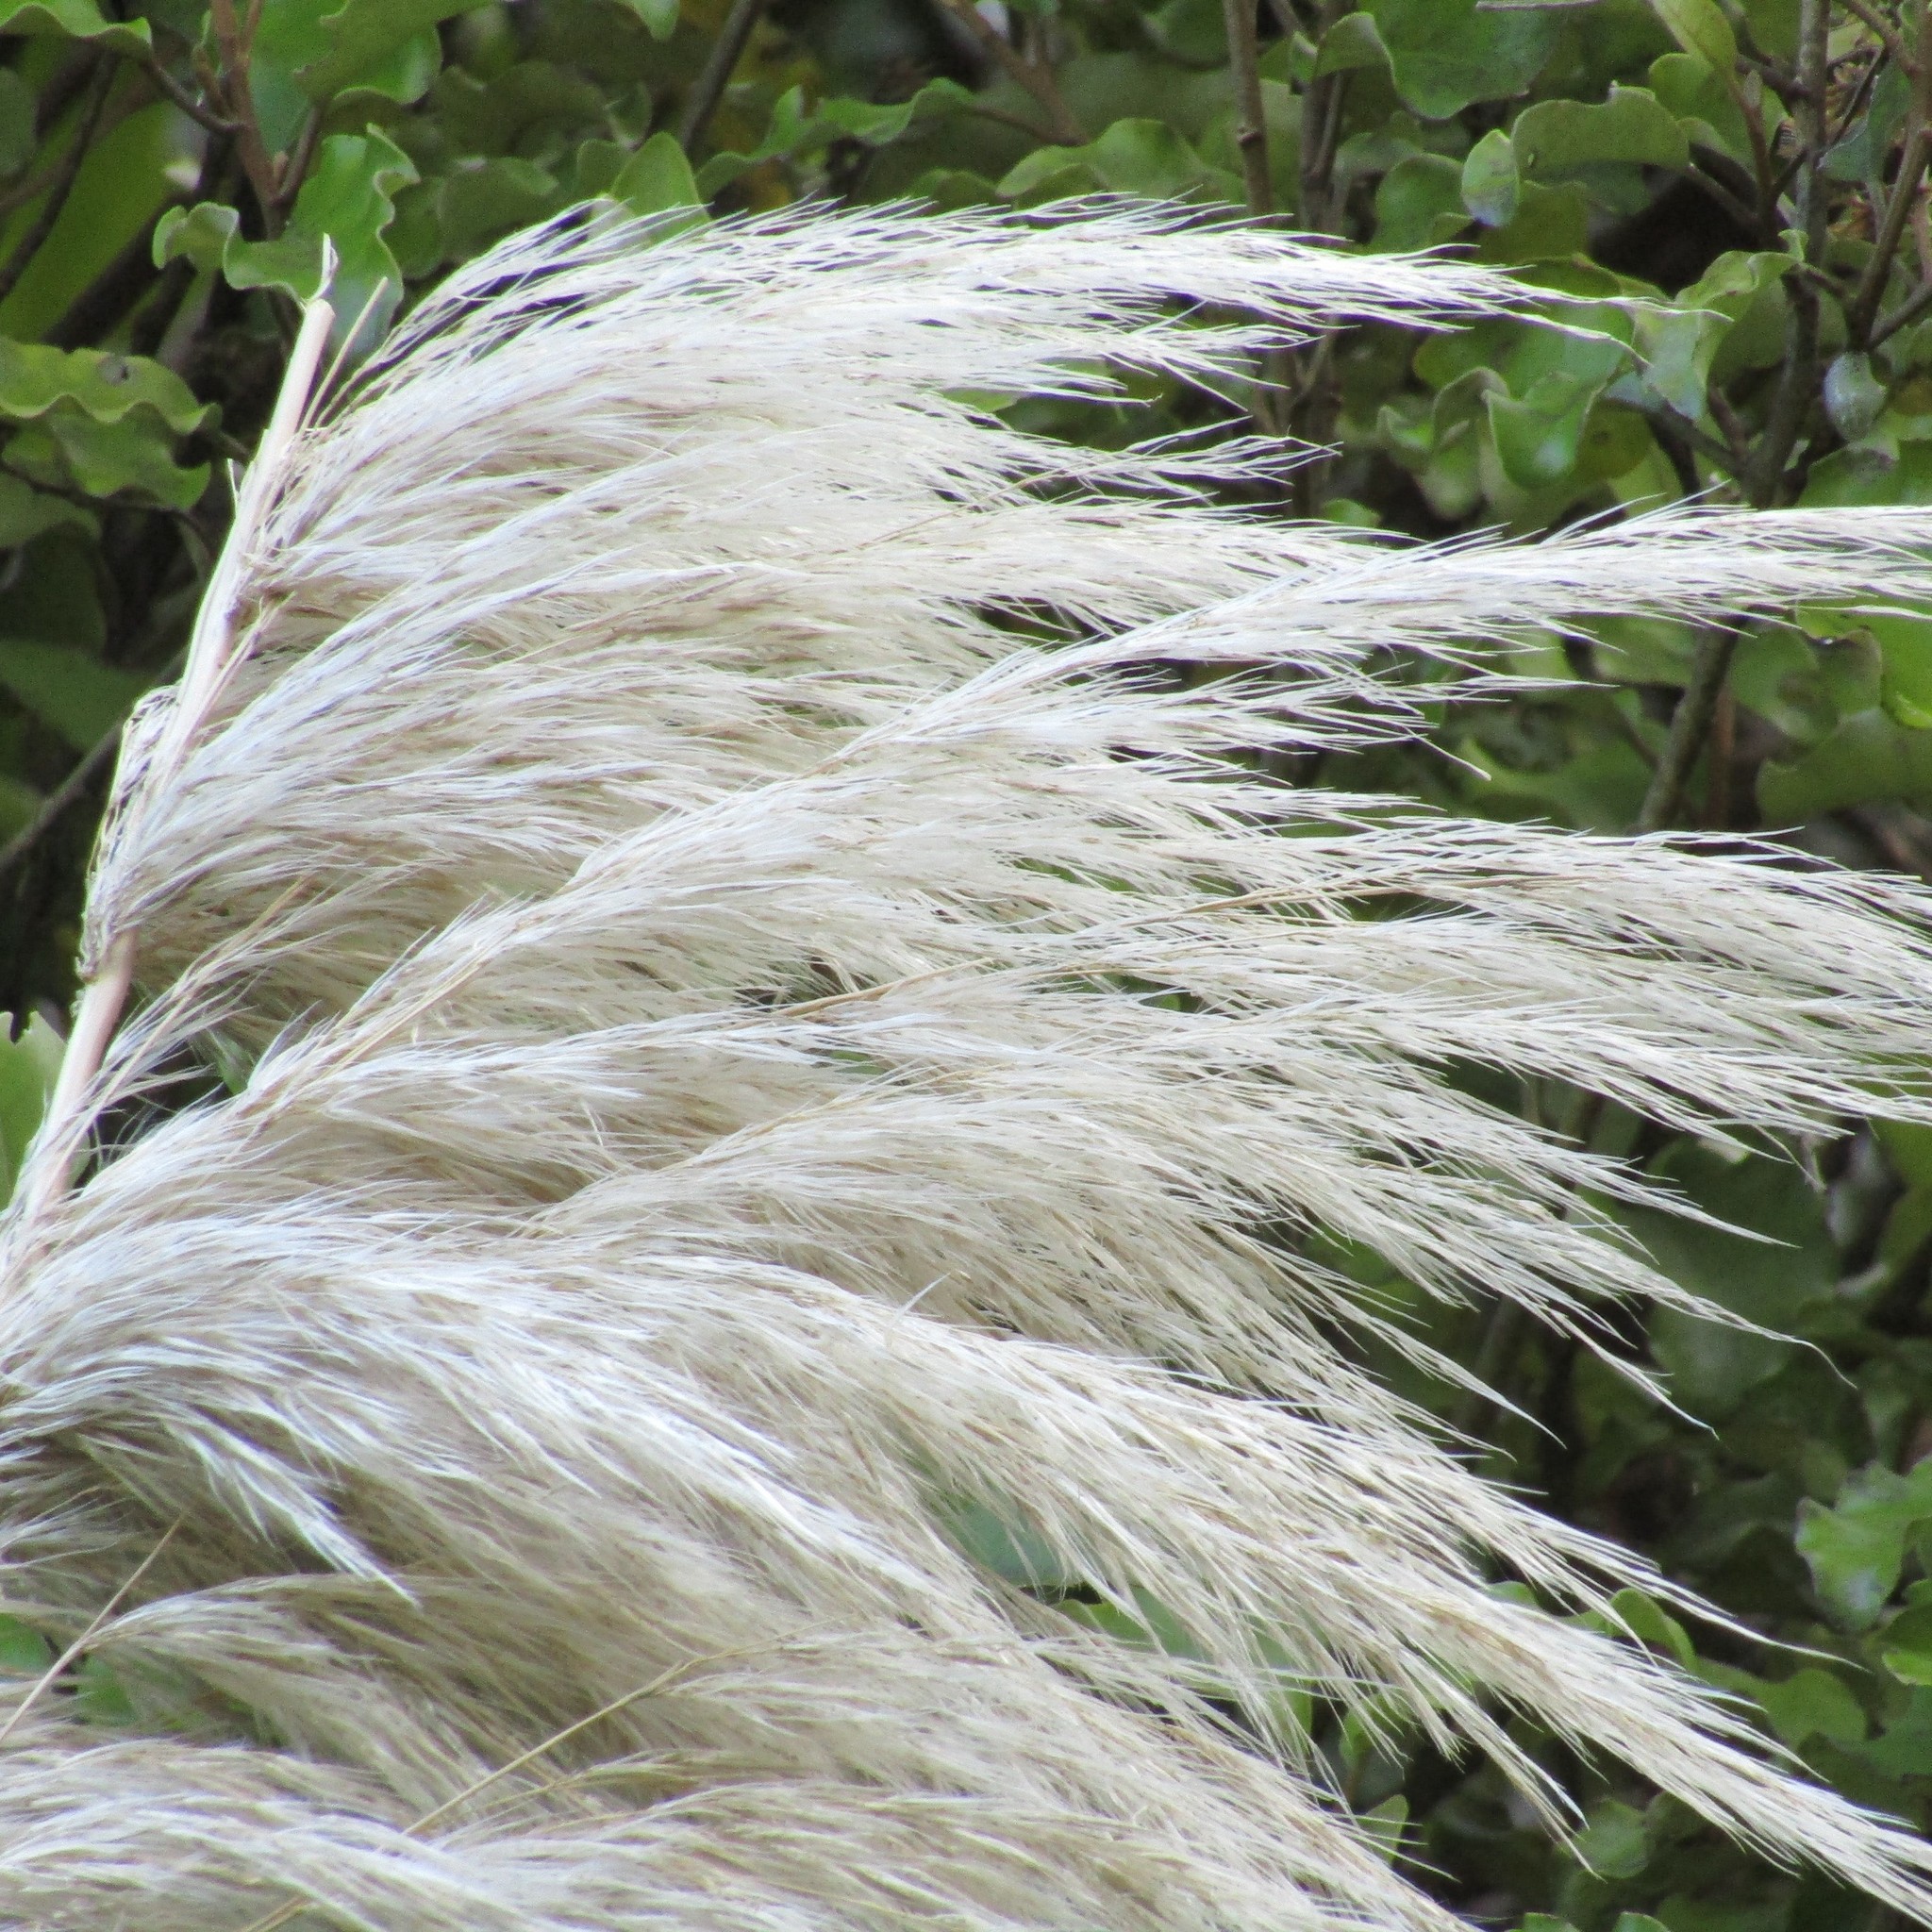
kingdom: Plantae
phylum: Tracheophyta
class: Liliopsida
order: Poales
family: Poaceae
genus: Cortaderia
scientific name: Cortaderia selloana
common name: Uruguayan pampas grass
